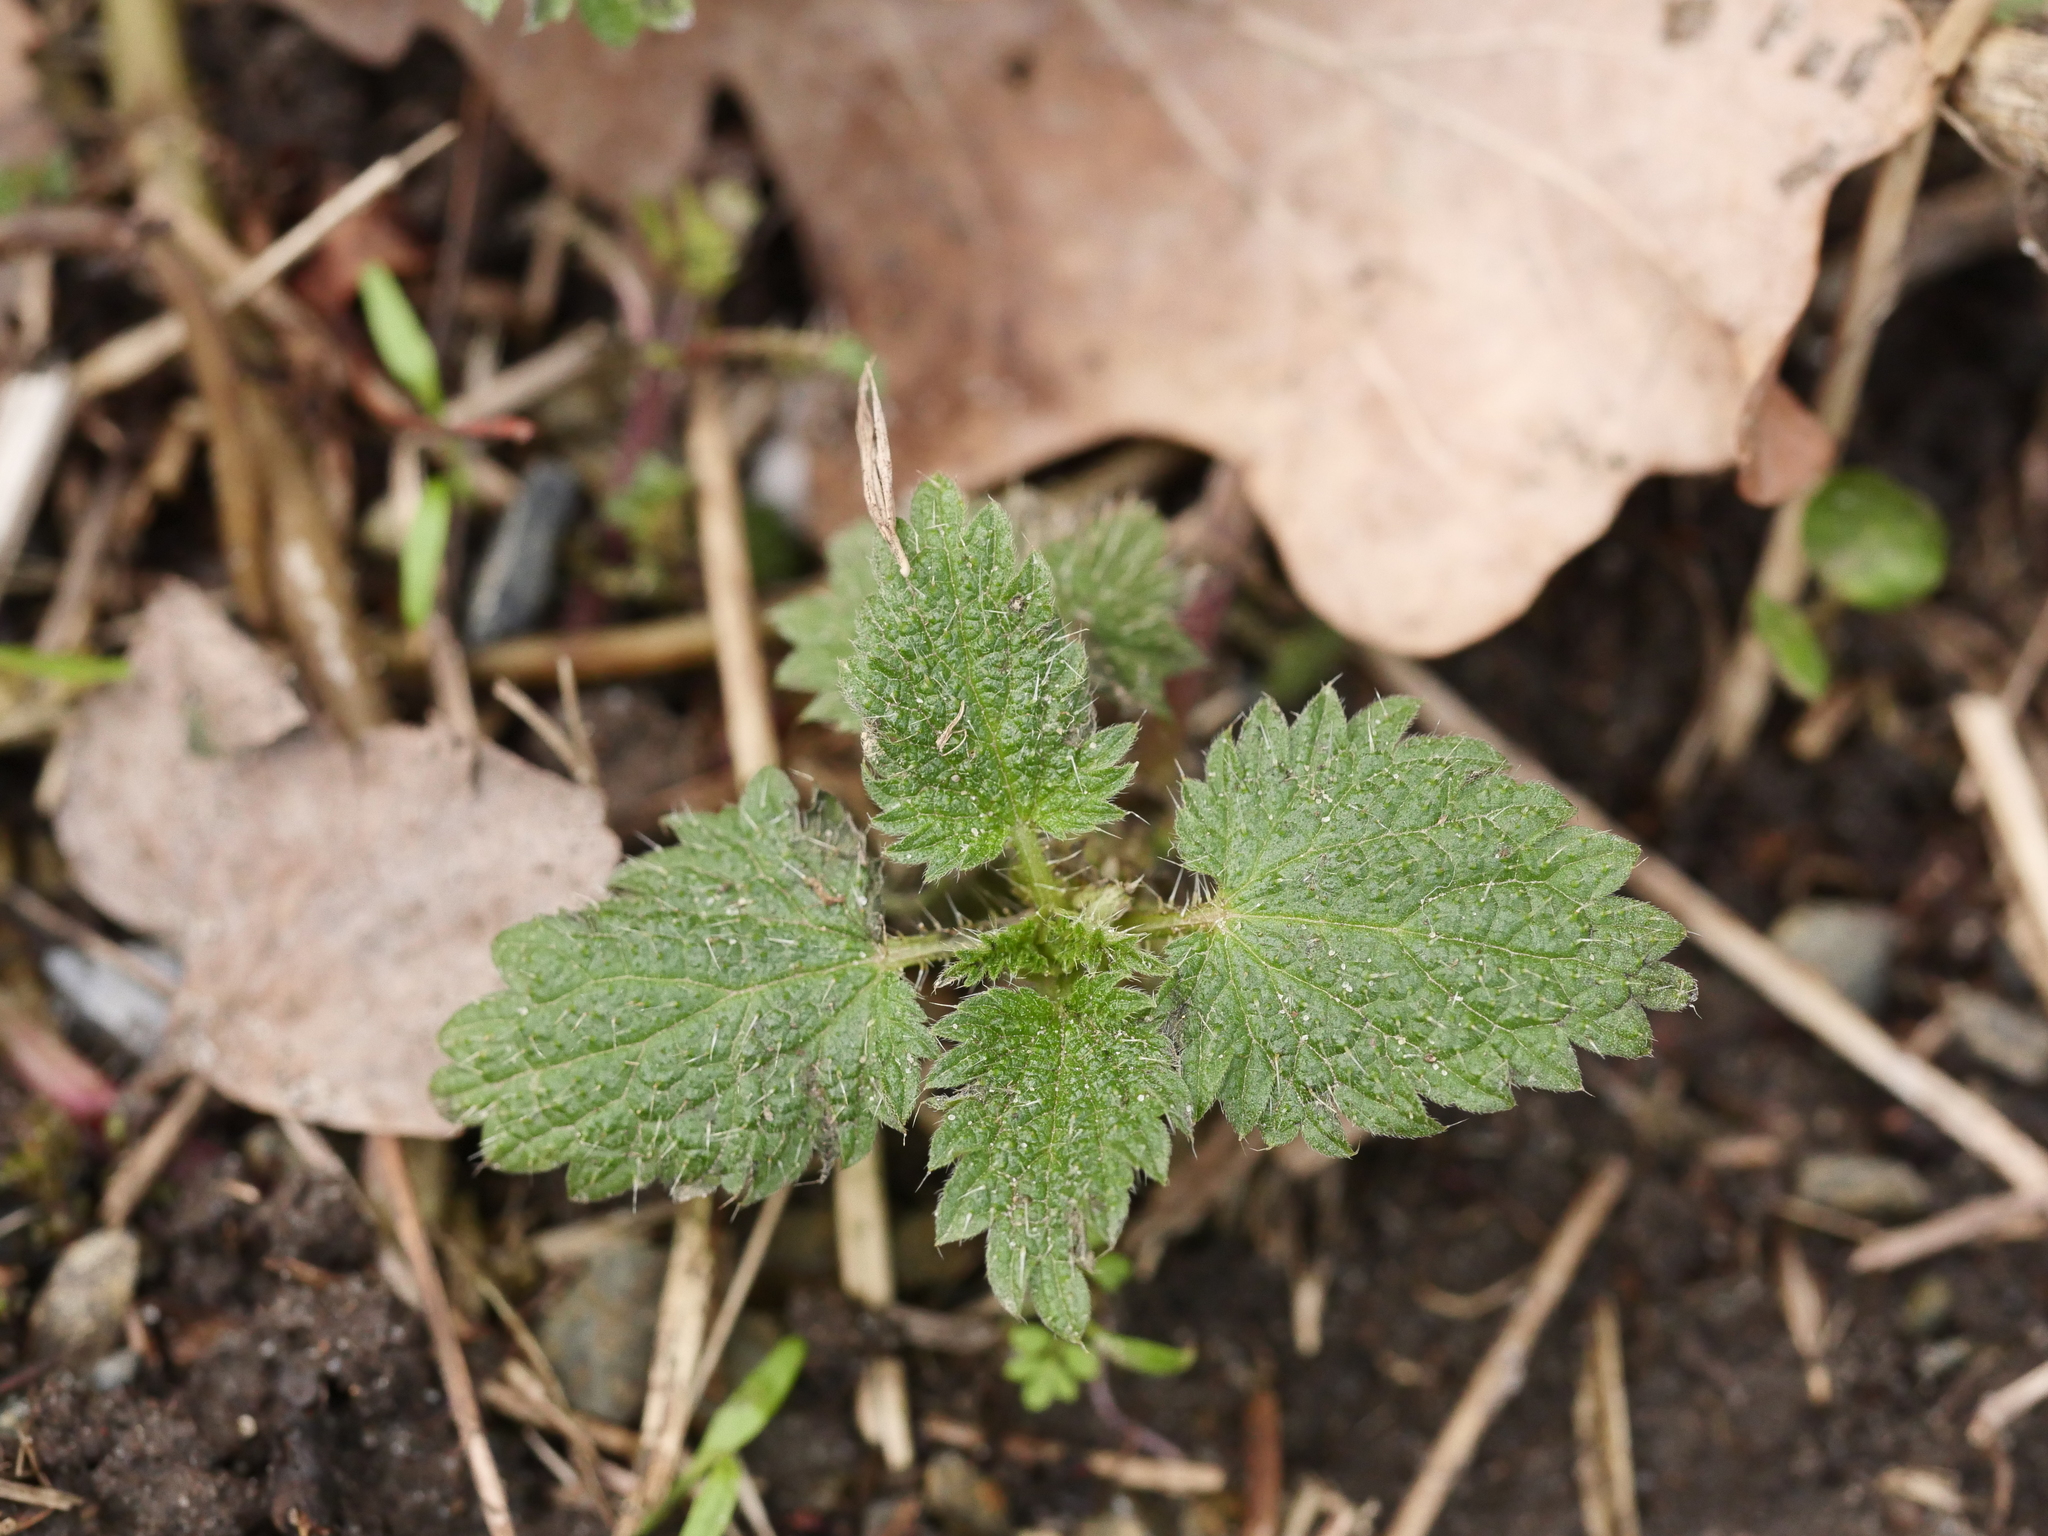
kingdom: Plantae
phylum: Tracheophyta
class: Magnoliopsida
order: Rosales
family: Urticaceae
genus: Urtica
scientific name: Urtica dioica
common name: Common nettle
